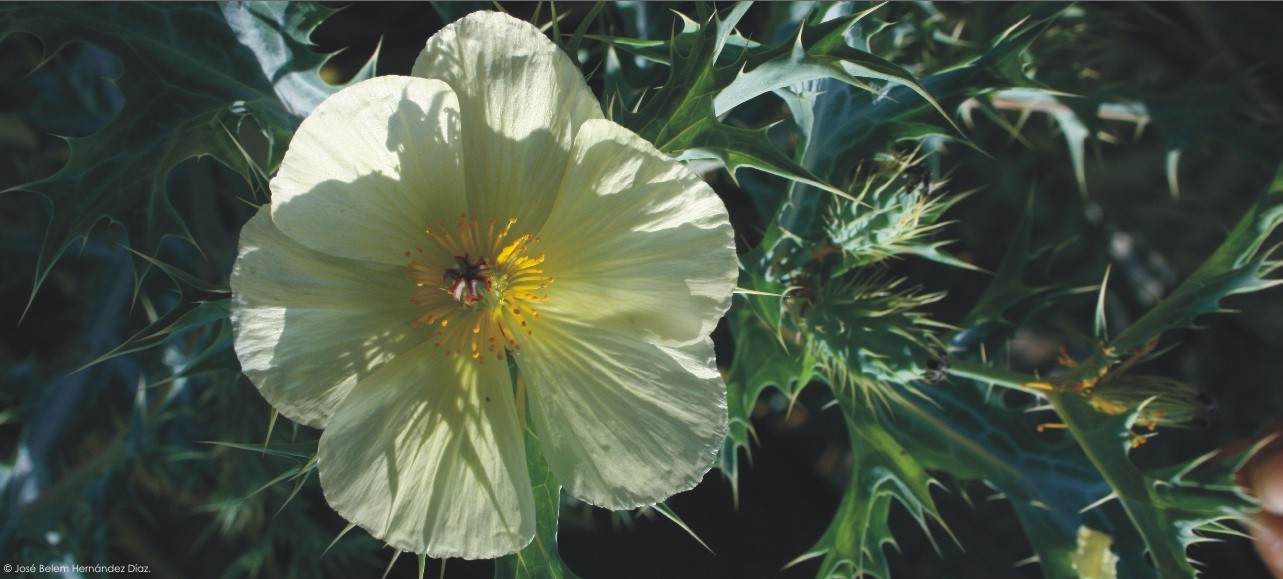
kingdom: Plantae
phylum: Tracheophyta
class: Magnoliopsida
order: Ranunculales
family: Papaveraceae
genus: Argemone
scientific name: Argemone ochroleuca
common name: White-flower mexican-poppy
